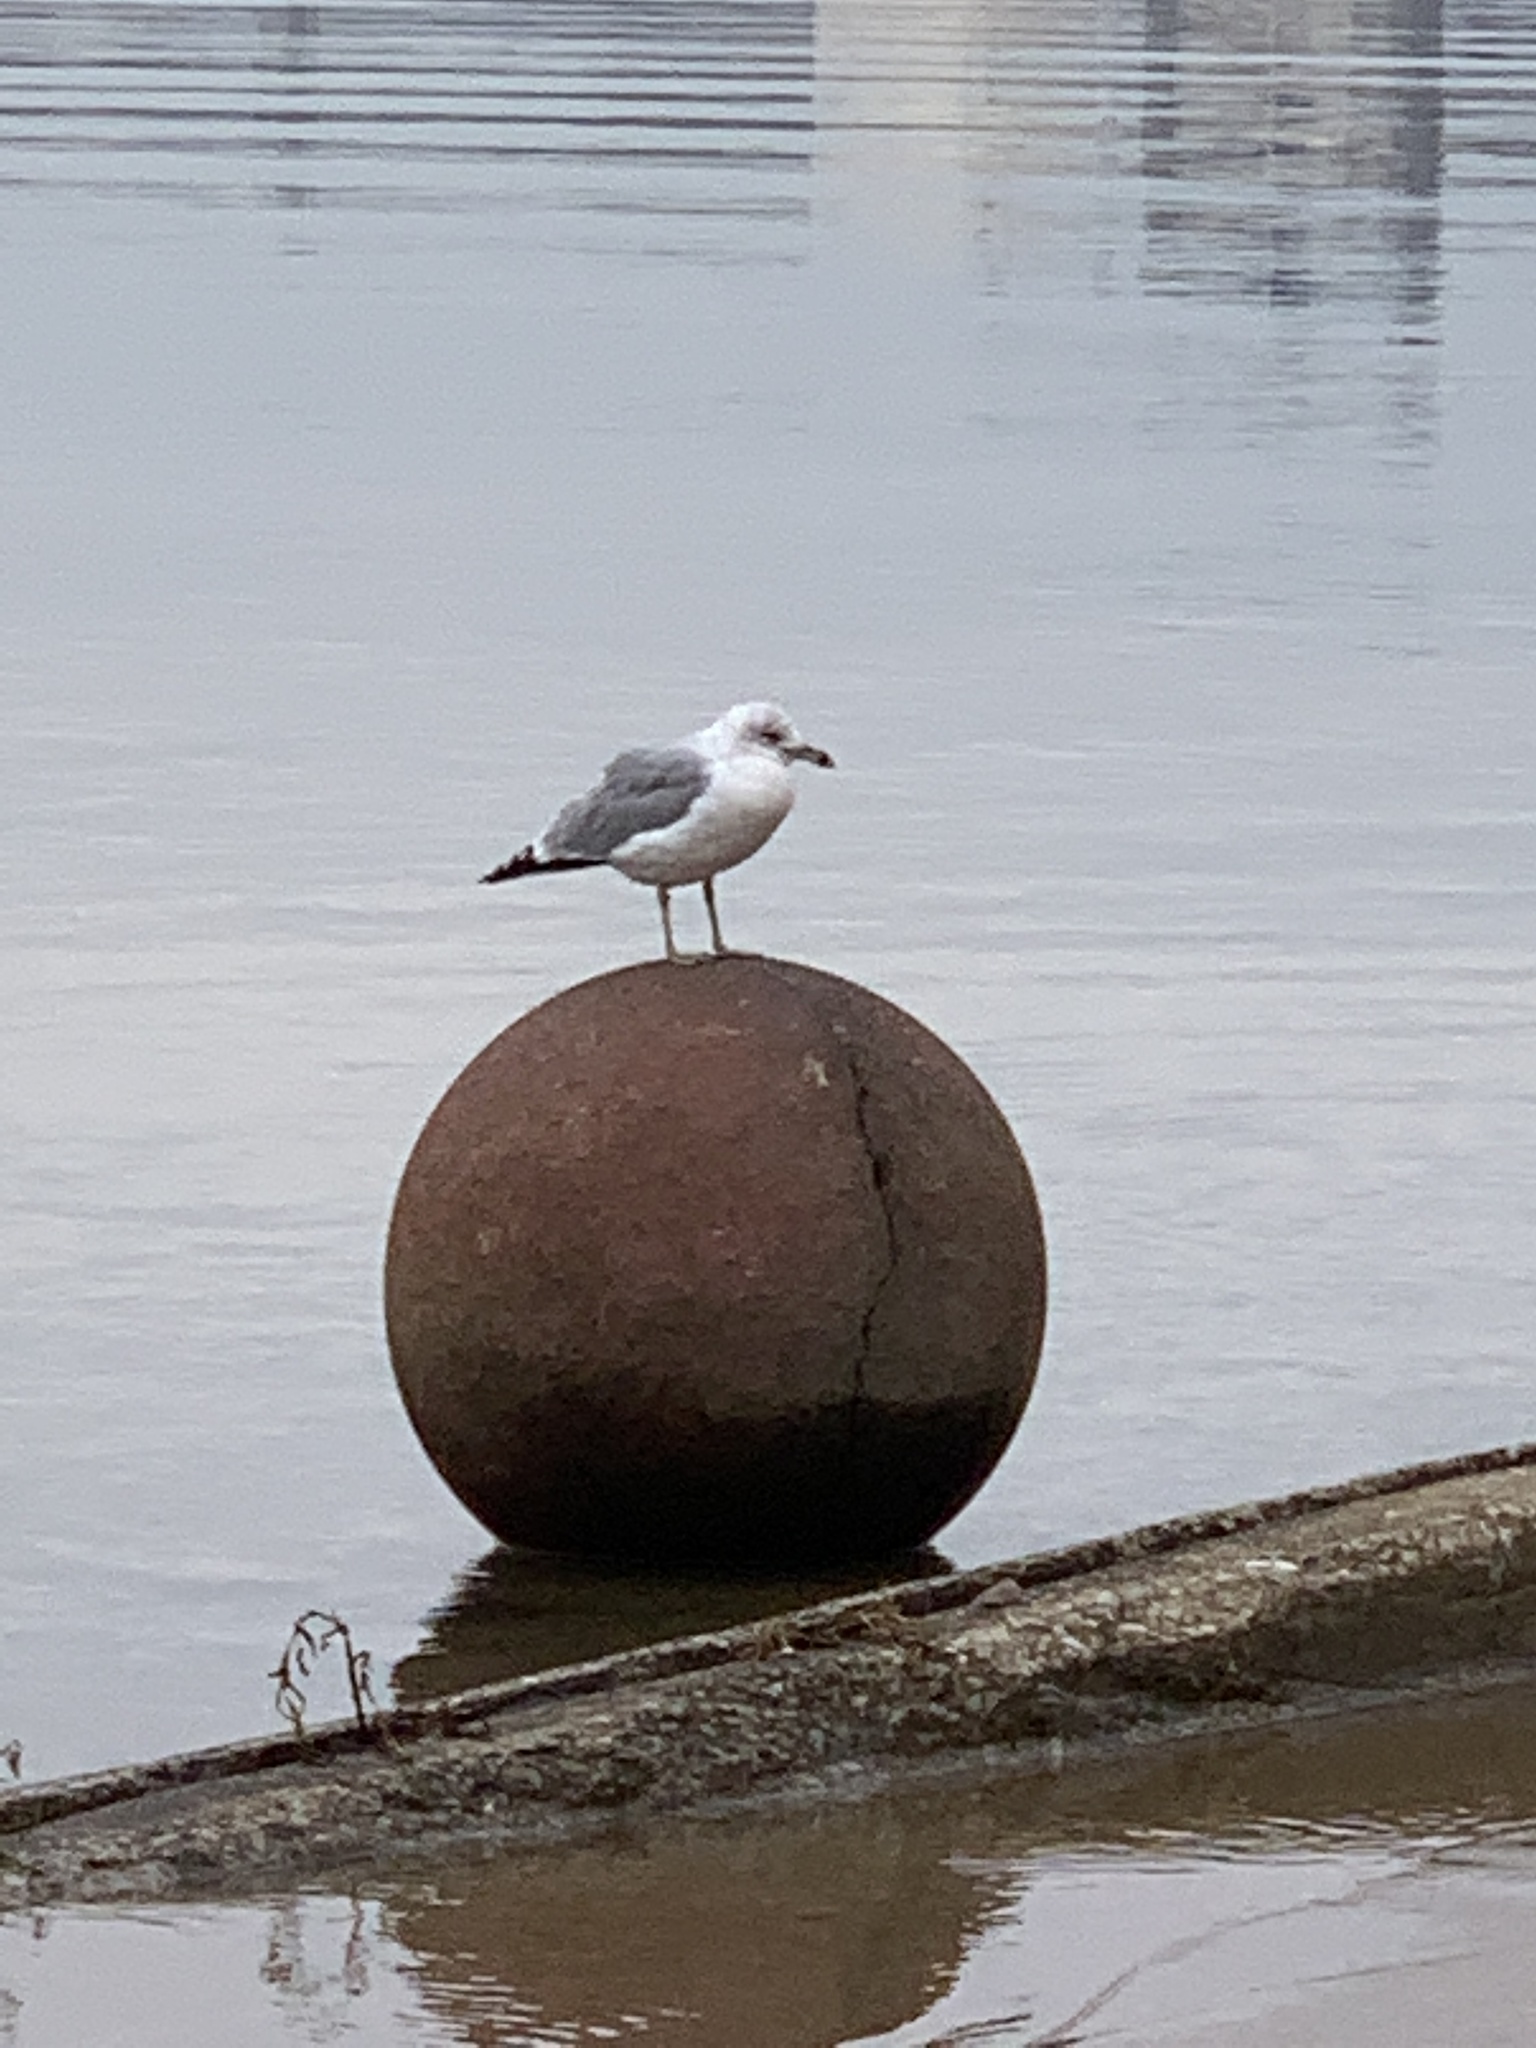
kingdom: Animalia
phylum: Chordata
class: Aves
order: Charadriiformes
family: Laridae
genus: Larus
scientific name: Larus delawarensis
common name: Ring-billed gull
